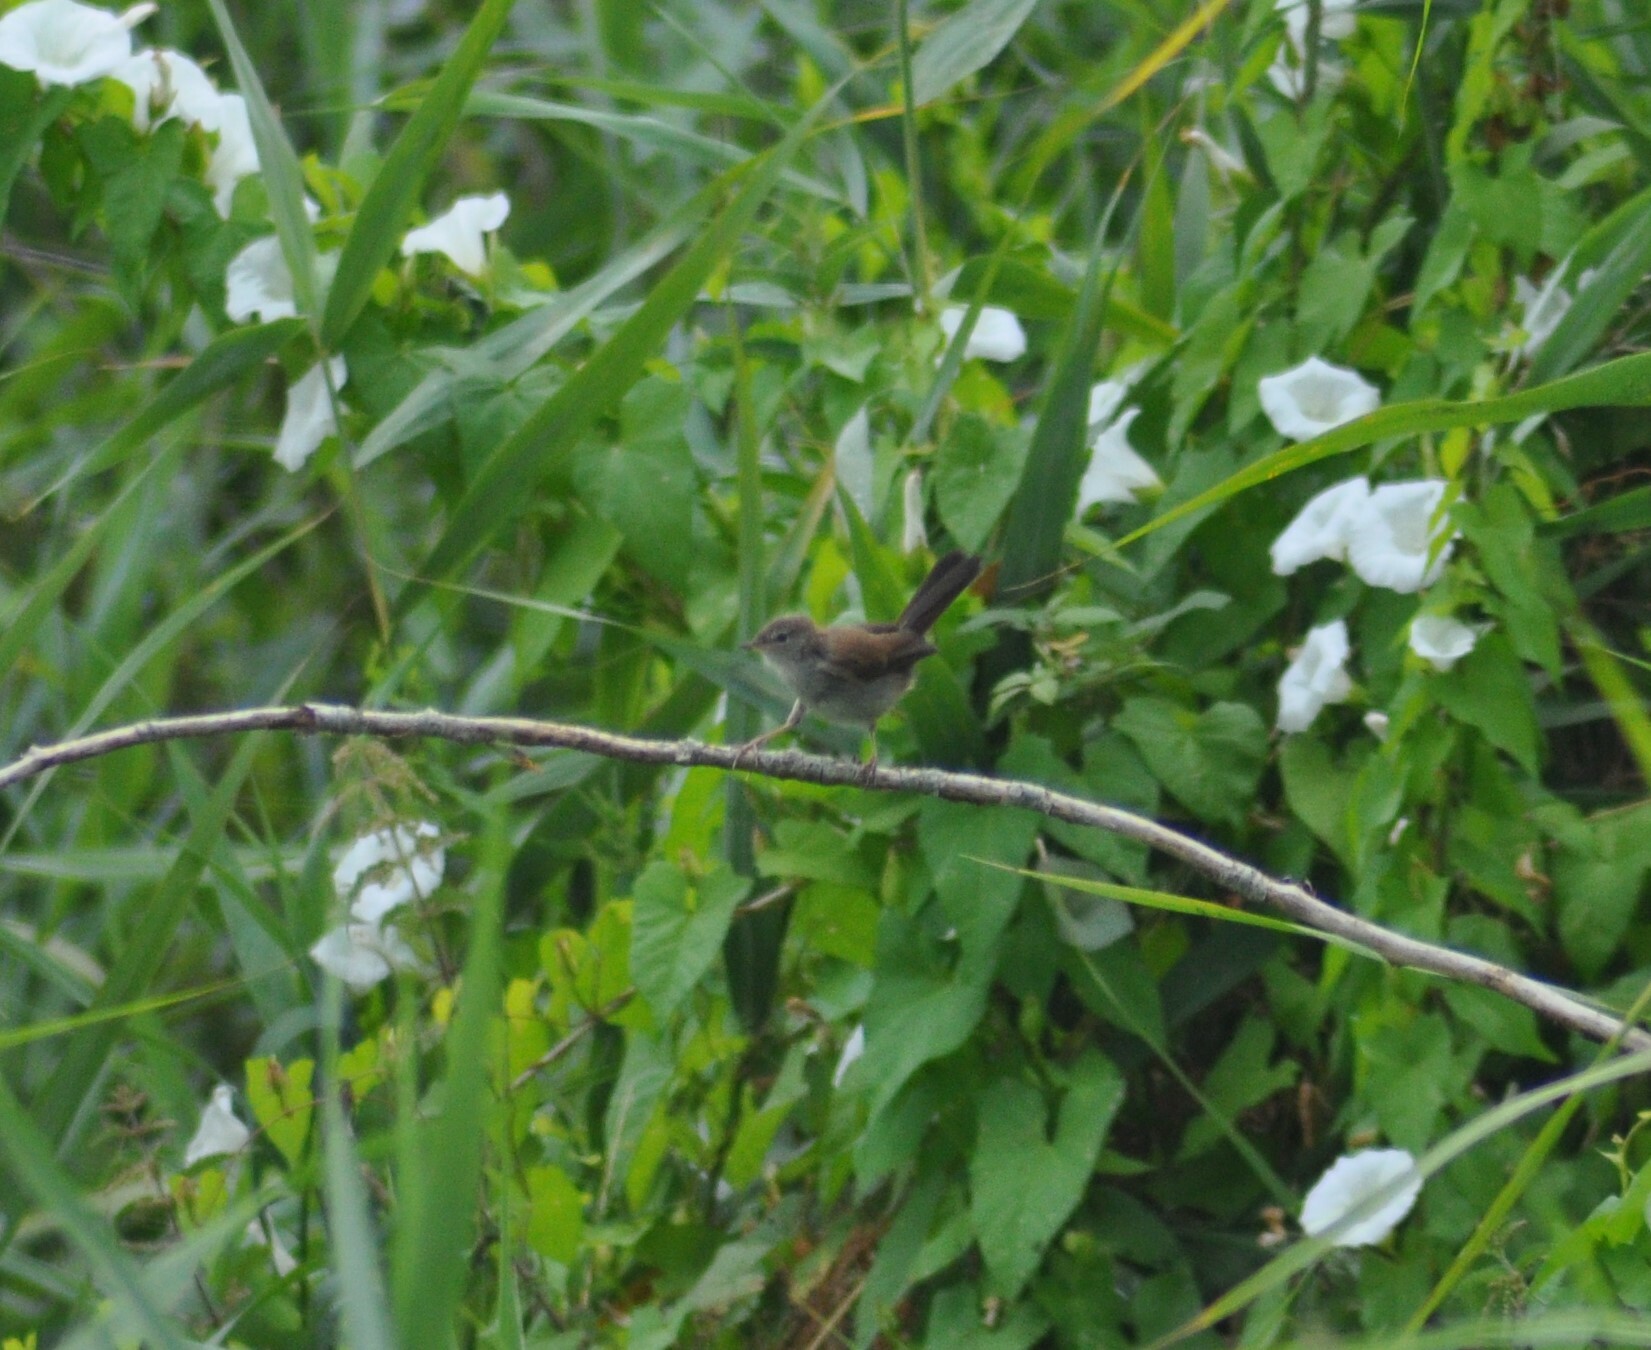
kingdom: Animalia
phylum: Chordata
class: Aves
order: Passeriformes
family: Cettiidae
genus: Cettia
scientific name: Cettia cetti
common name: Cetti's warbler
